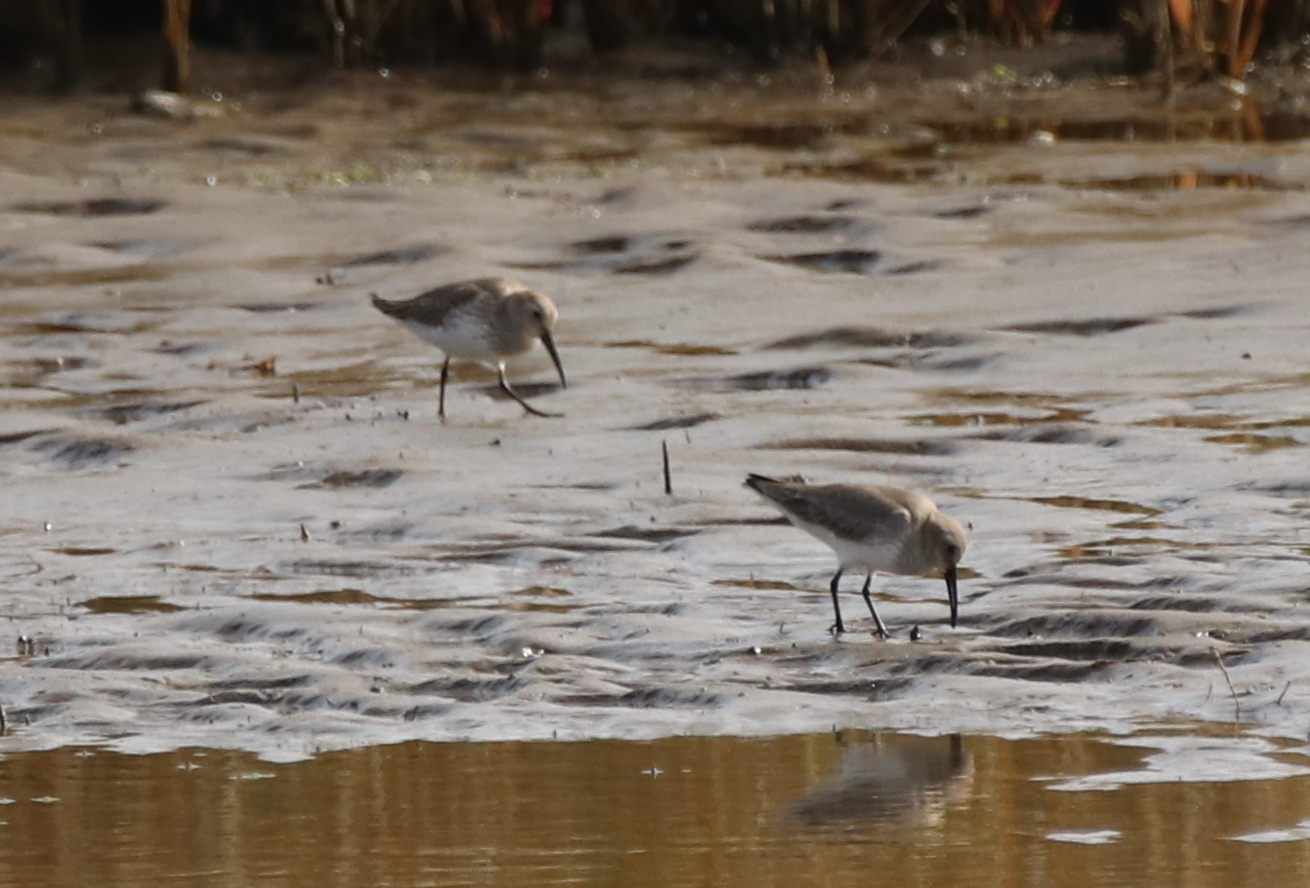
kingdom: Animalia
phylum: Chordata
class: Aves
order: Charadriiformes
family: Scolopacidae
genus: Calidris
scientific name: Calidris alpina
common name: Dunlin
